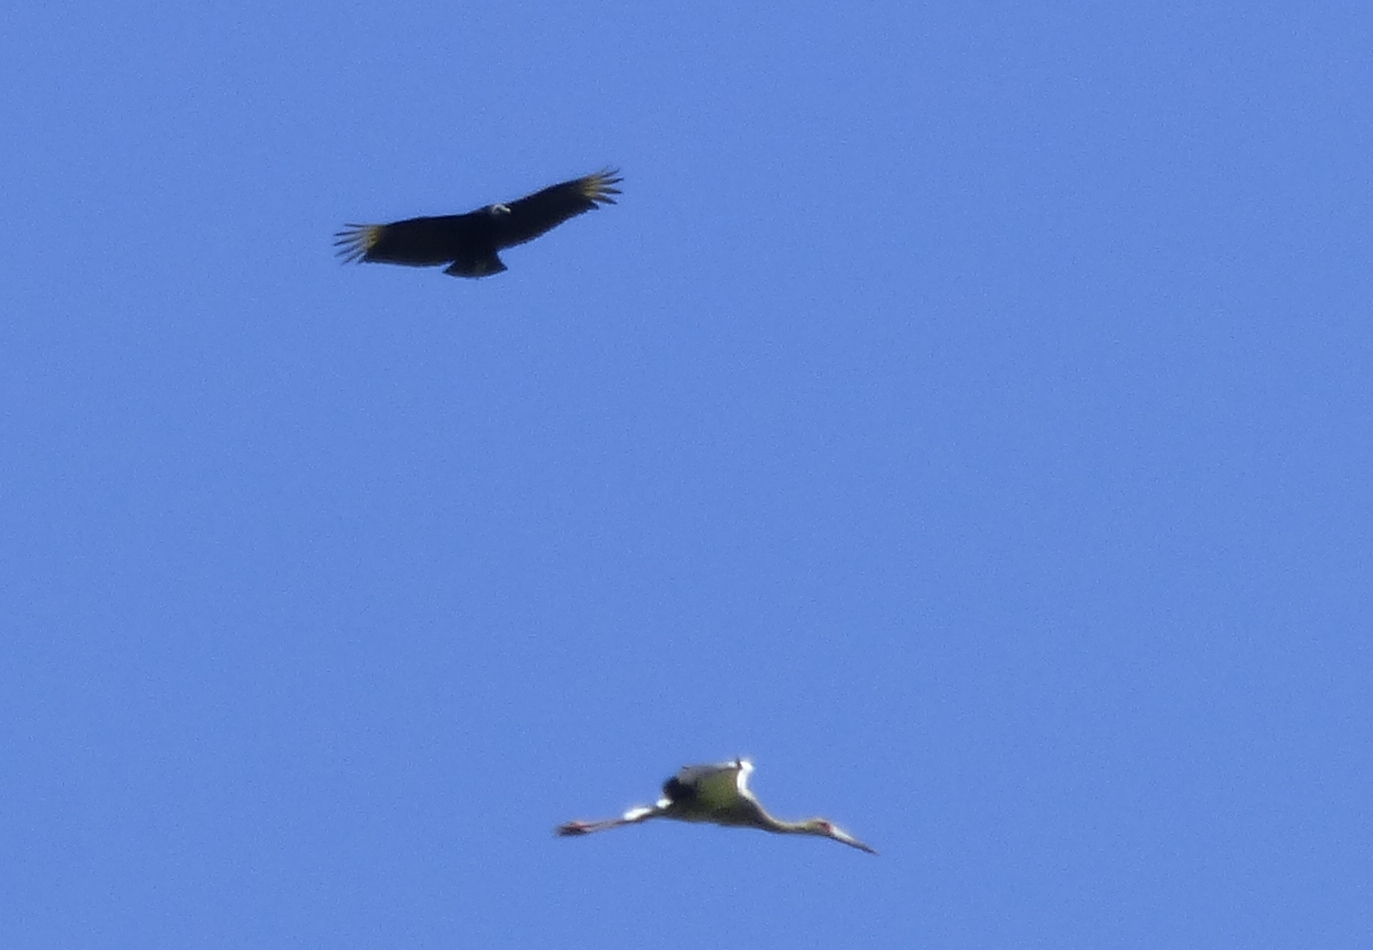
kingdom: Animalia
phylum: Chordata
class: Aves
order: Accipitriformes
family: Cathartidae
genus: Coragyps
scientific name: Coragyps atratus
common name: Black vulture
